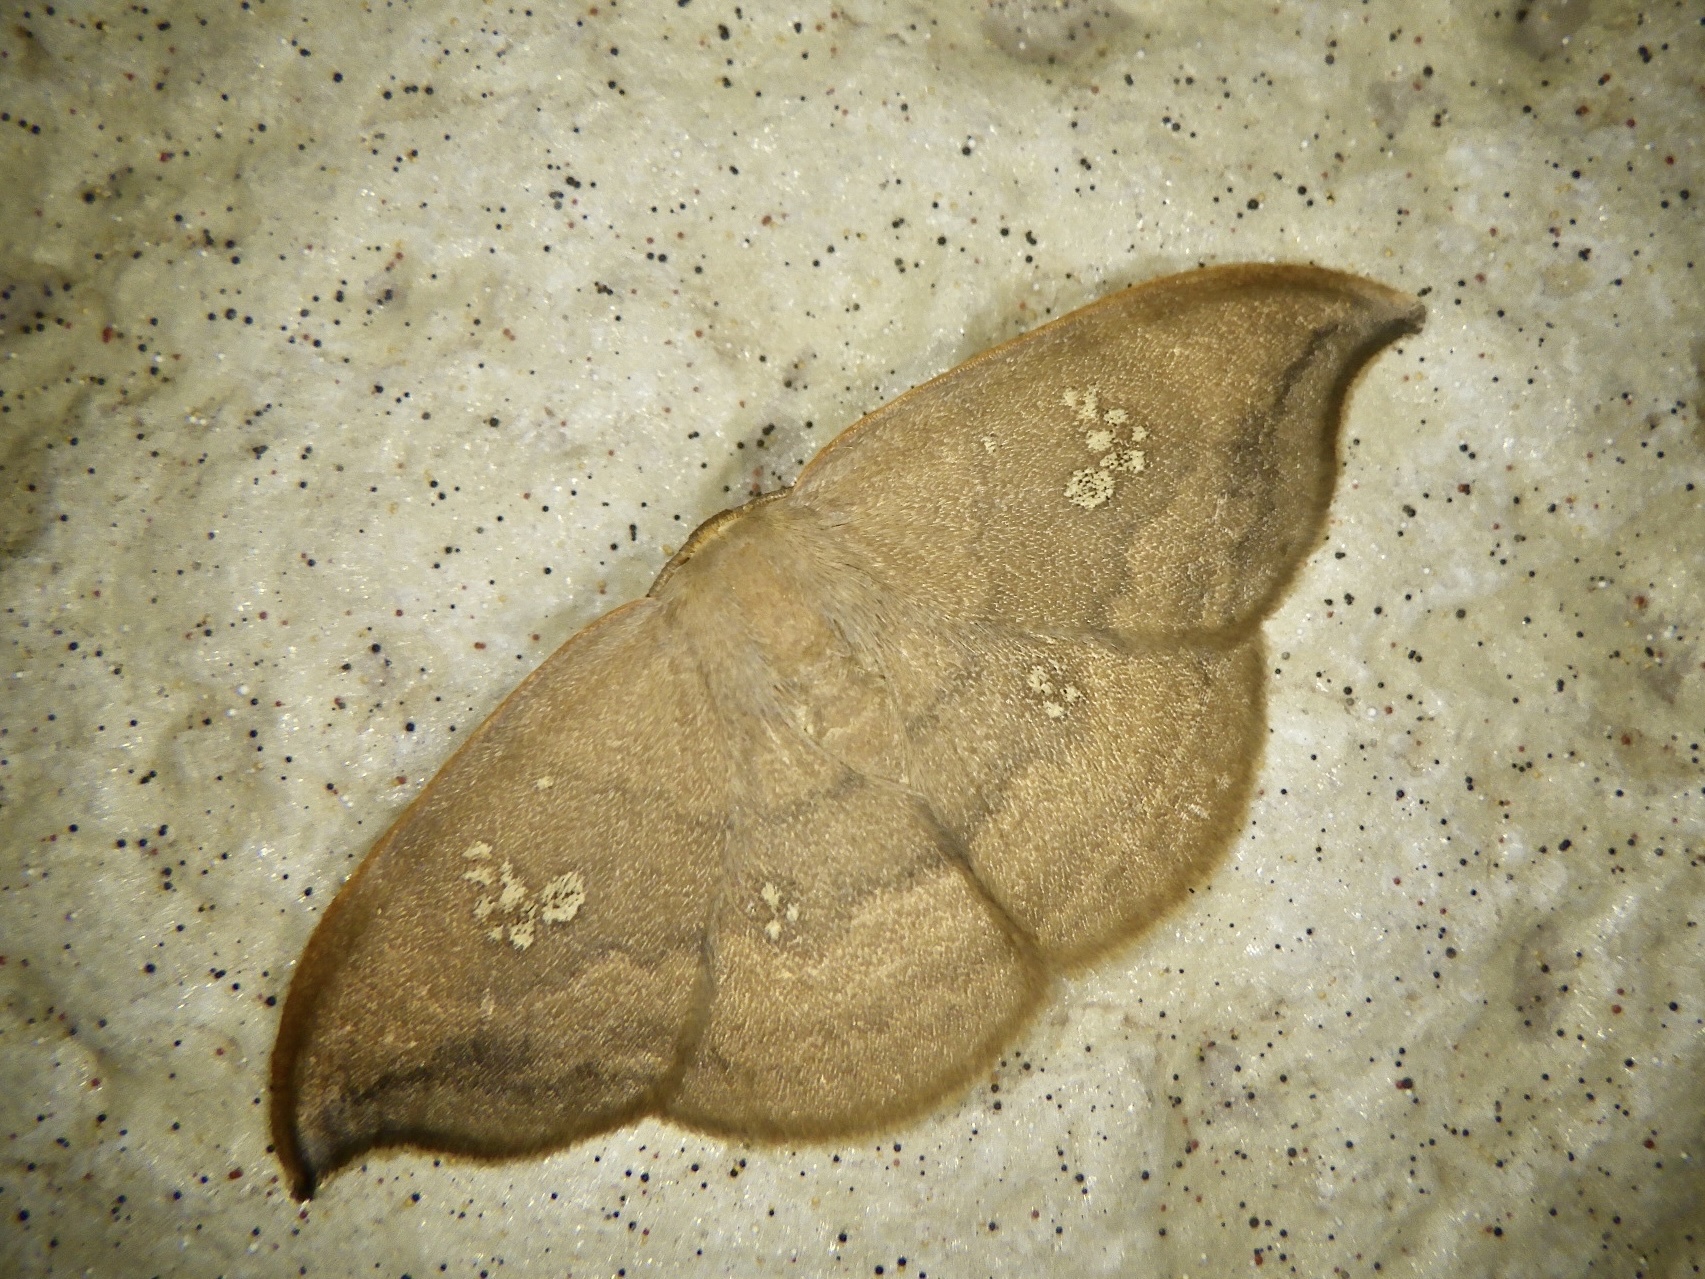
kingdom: Animalia
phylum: Arthropoda
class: Insecta
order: Lepidoptera
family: Drepanidae
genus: Agnidra
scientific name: Agnidra scabiosa
